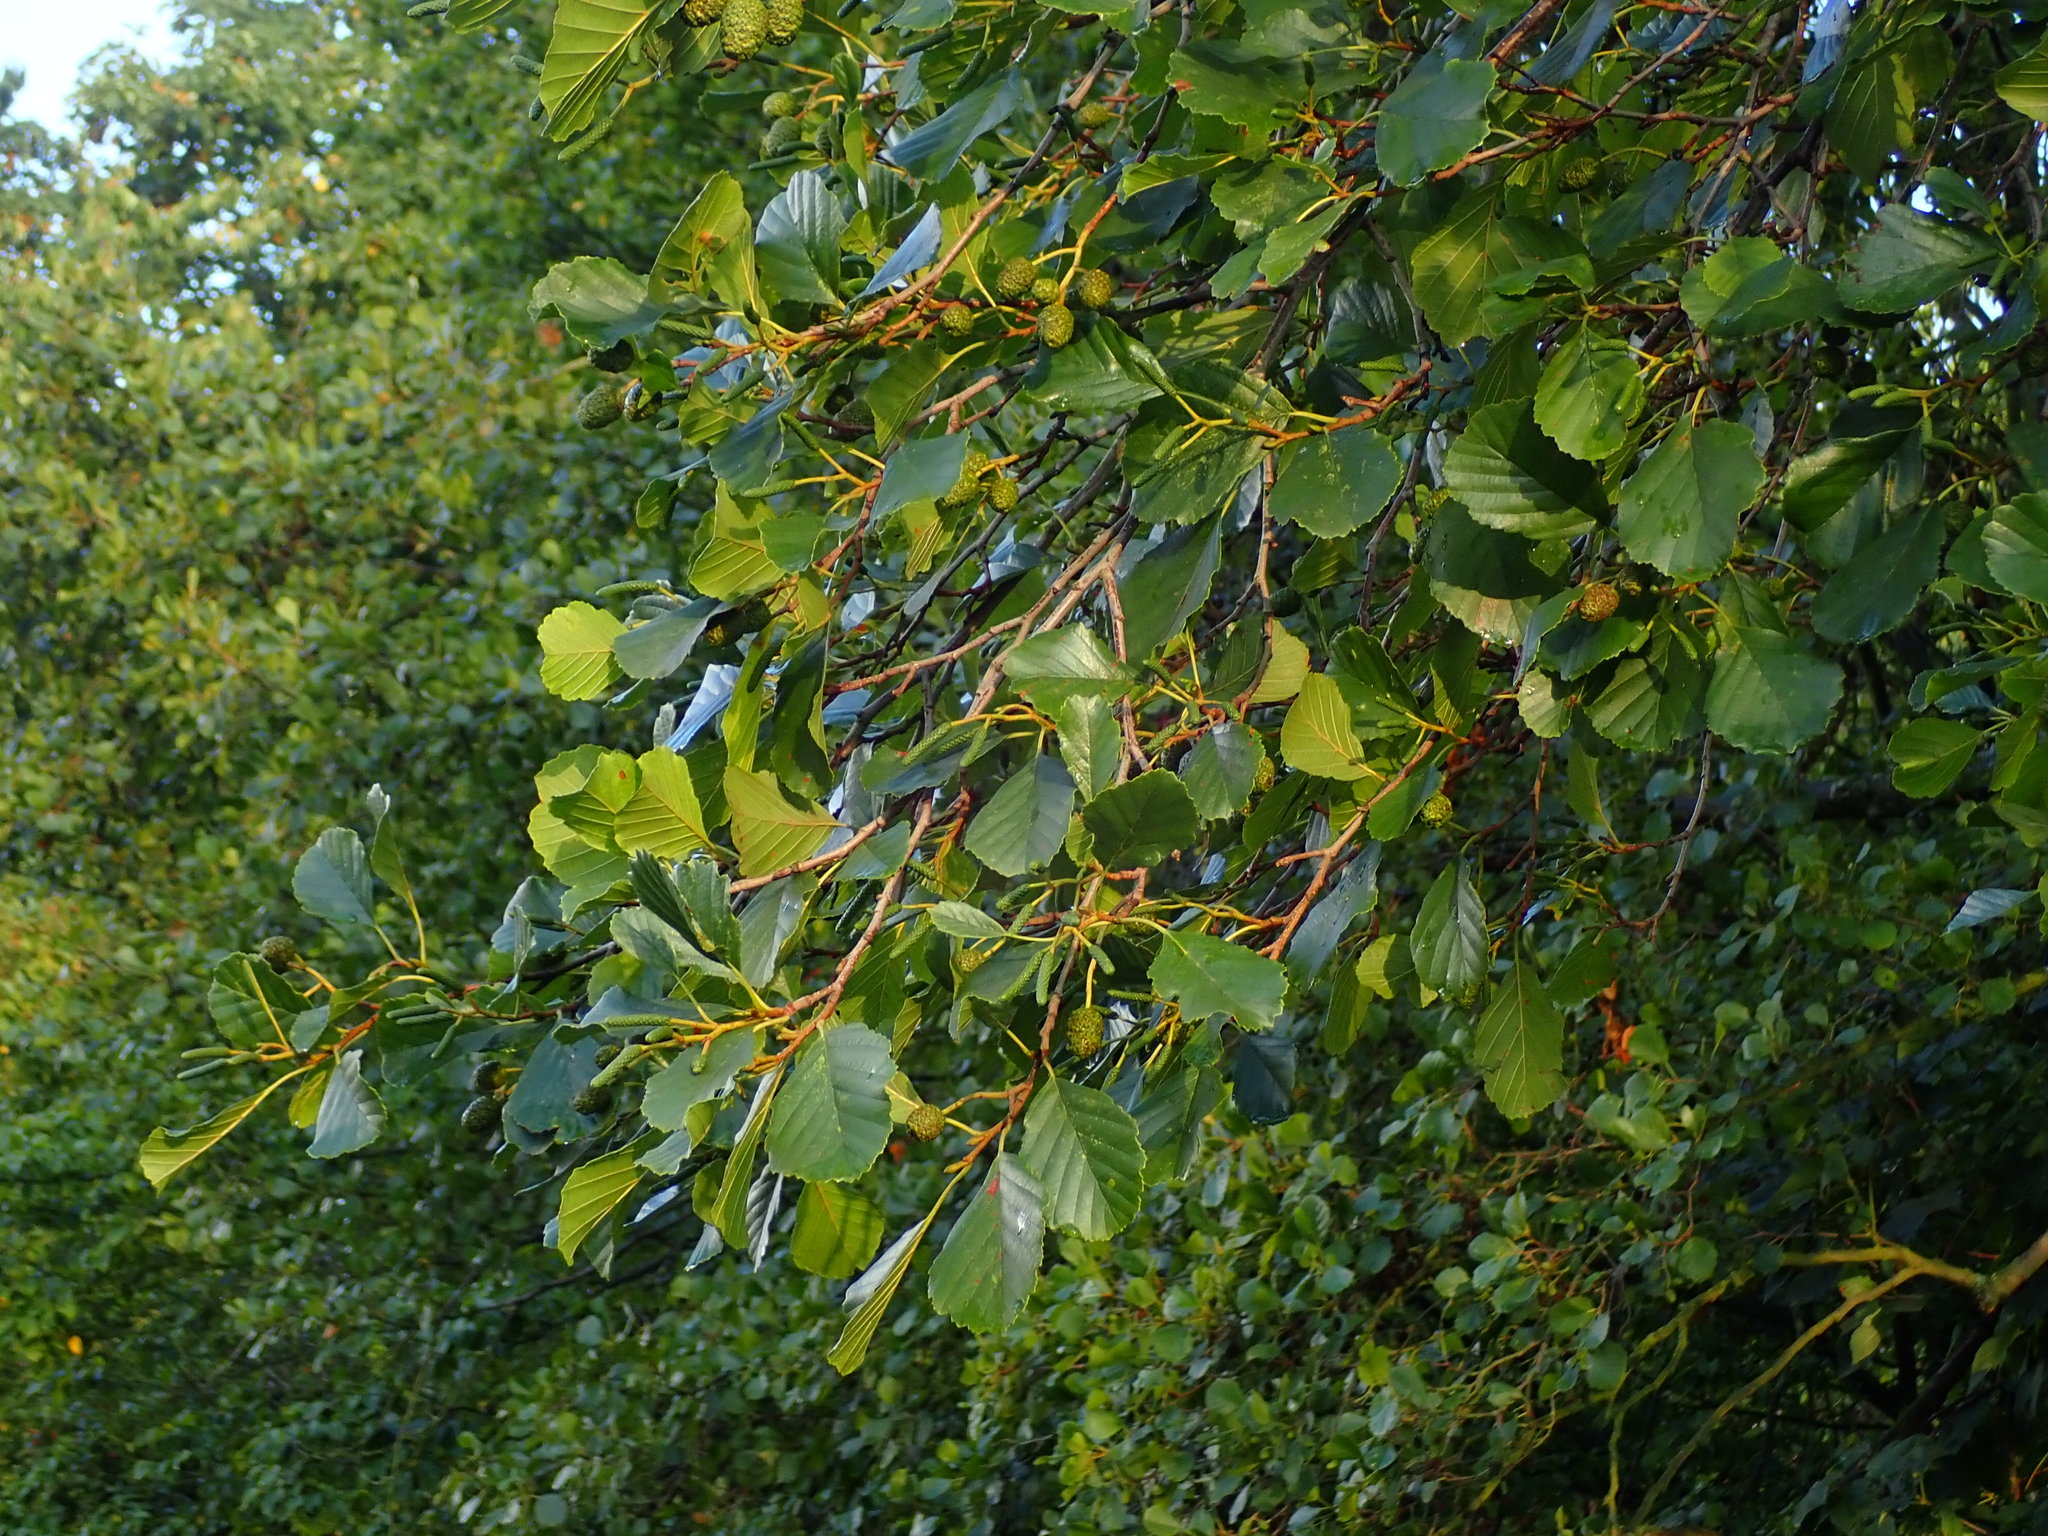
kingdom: Plantae
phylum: Tracheophyta
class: Magnoliopsida
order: Fagales
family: Betulaceae
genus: Alnus
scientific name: Alnus glutinosa
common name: Black alder
